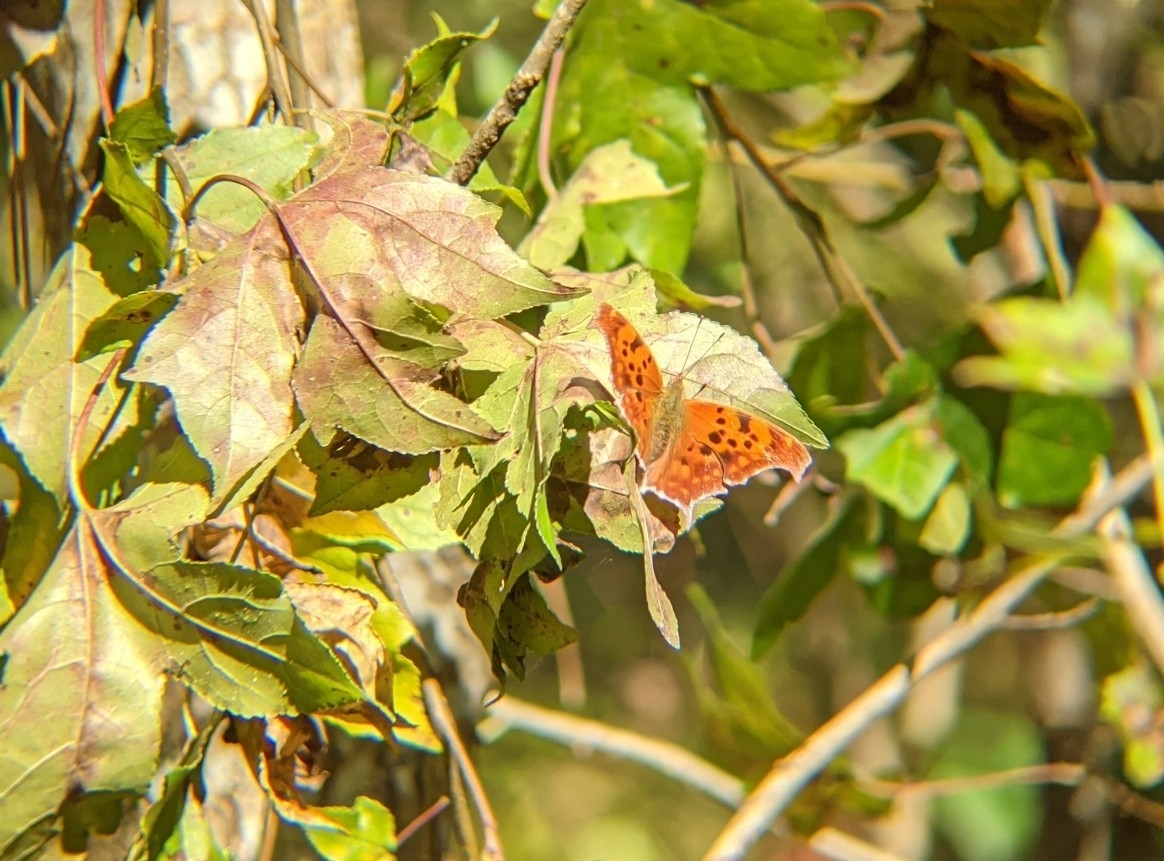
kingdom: Animalia
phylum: Arthropoda
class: Insecta
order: Lepidoptera
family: Nymphalidae
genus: Polygonia
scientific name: Polygonia interrogationis
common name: Question mark
